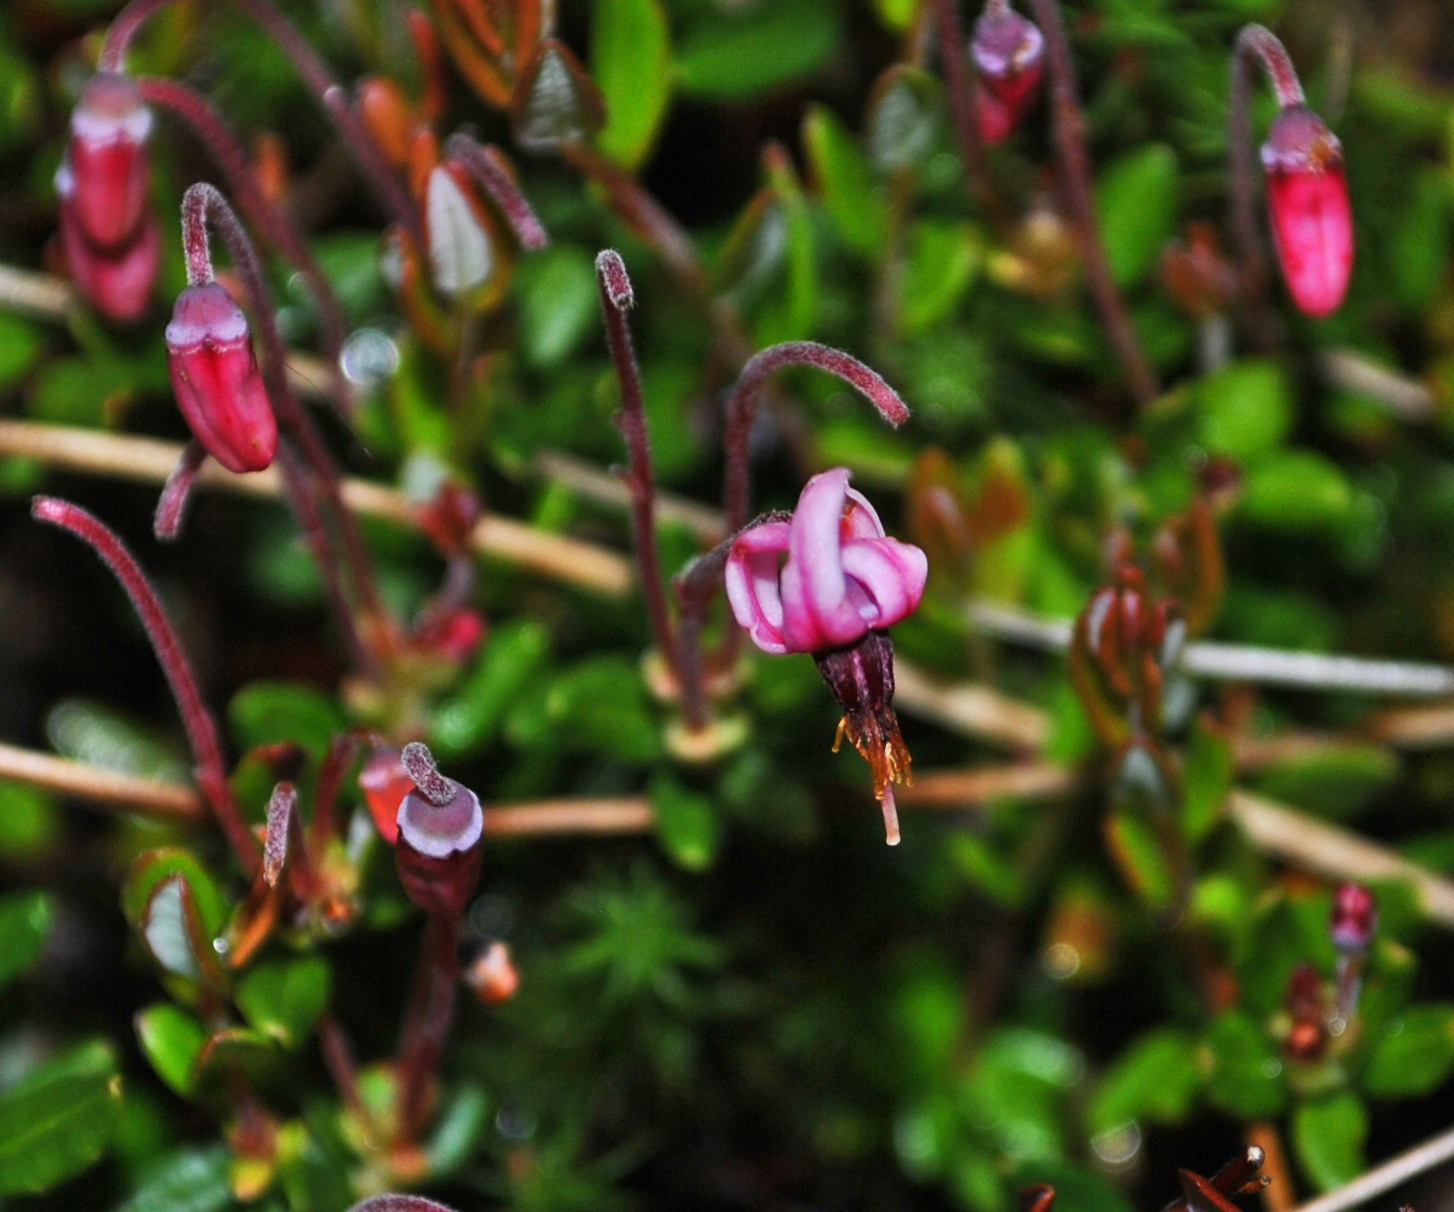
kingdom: Plantae
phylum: Tracheophyta
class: Magnoliopsida
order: Ericales
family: Ericaceae
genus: Vaccinium
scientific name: Vaccinium oxycoccos
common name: Cranberry
